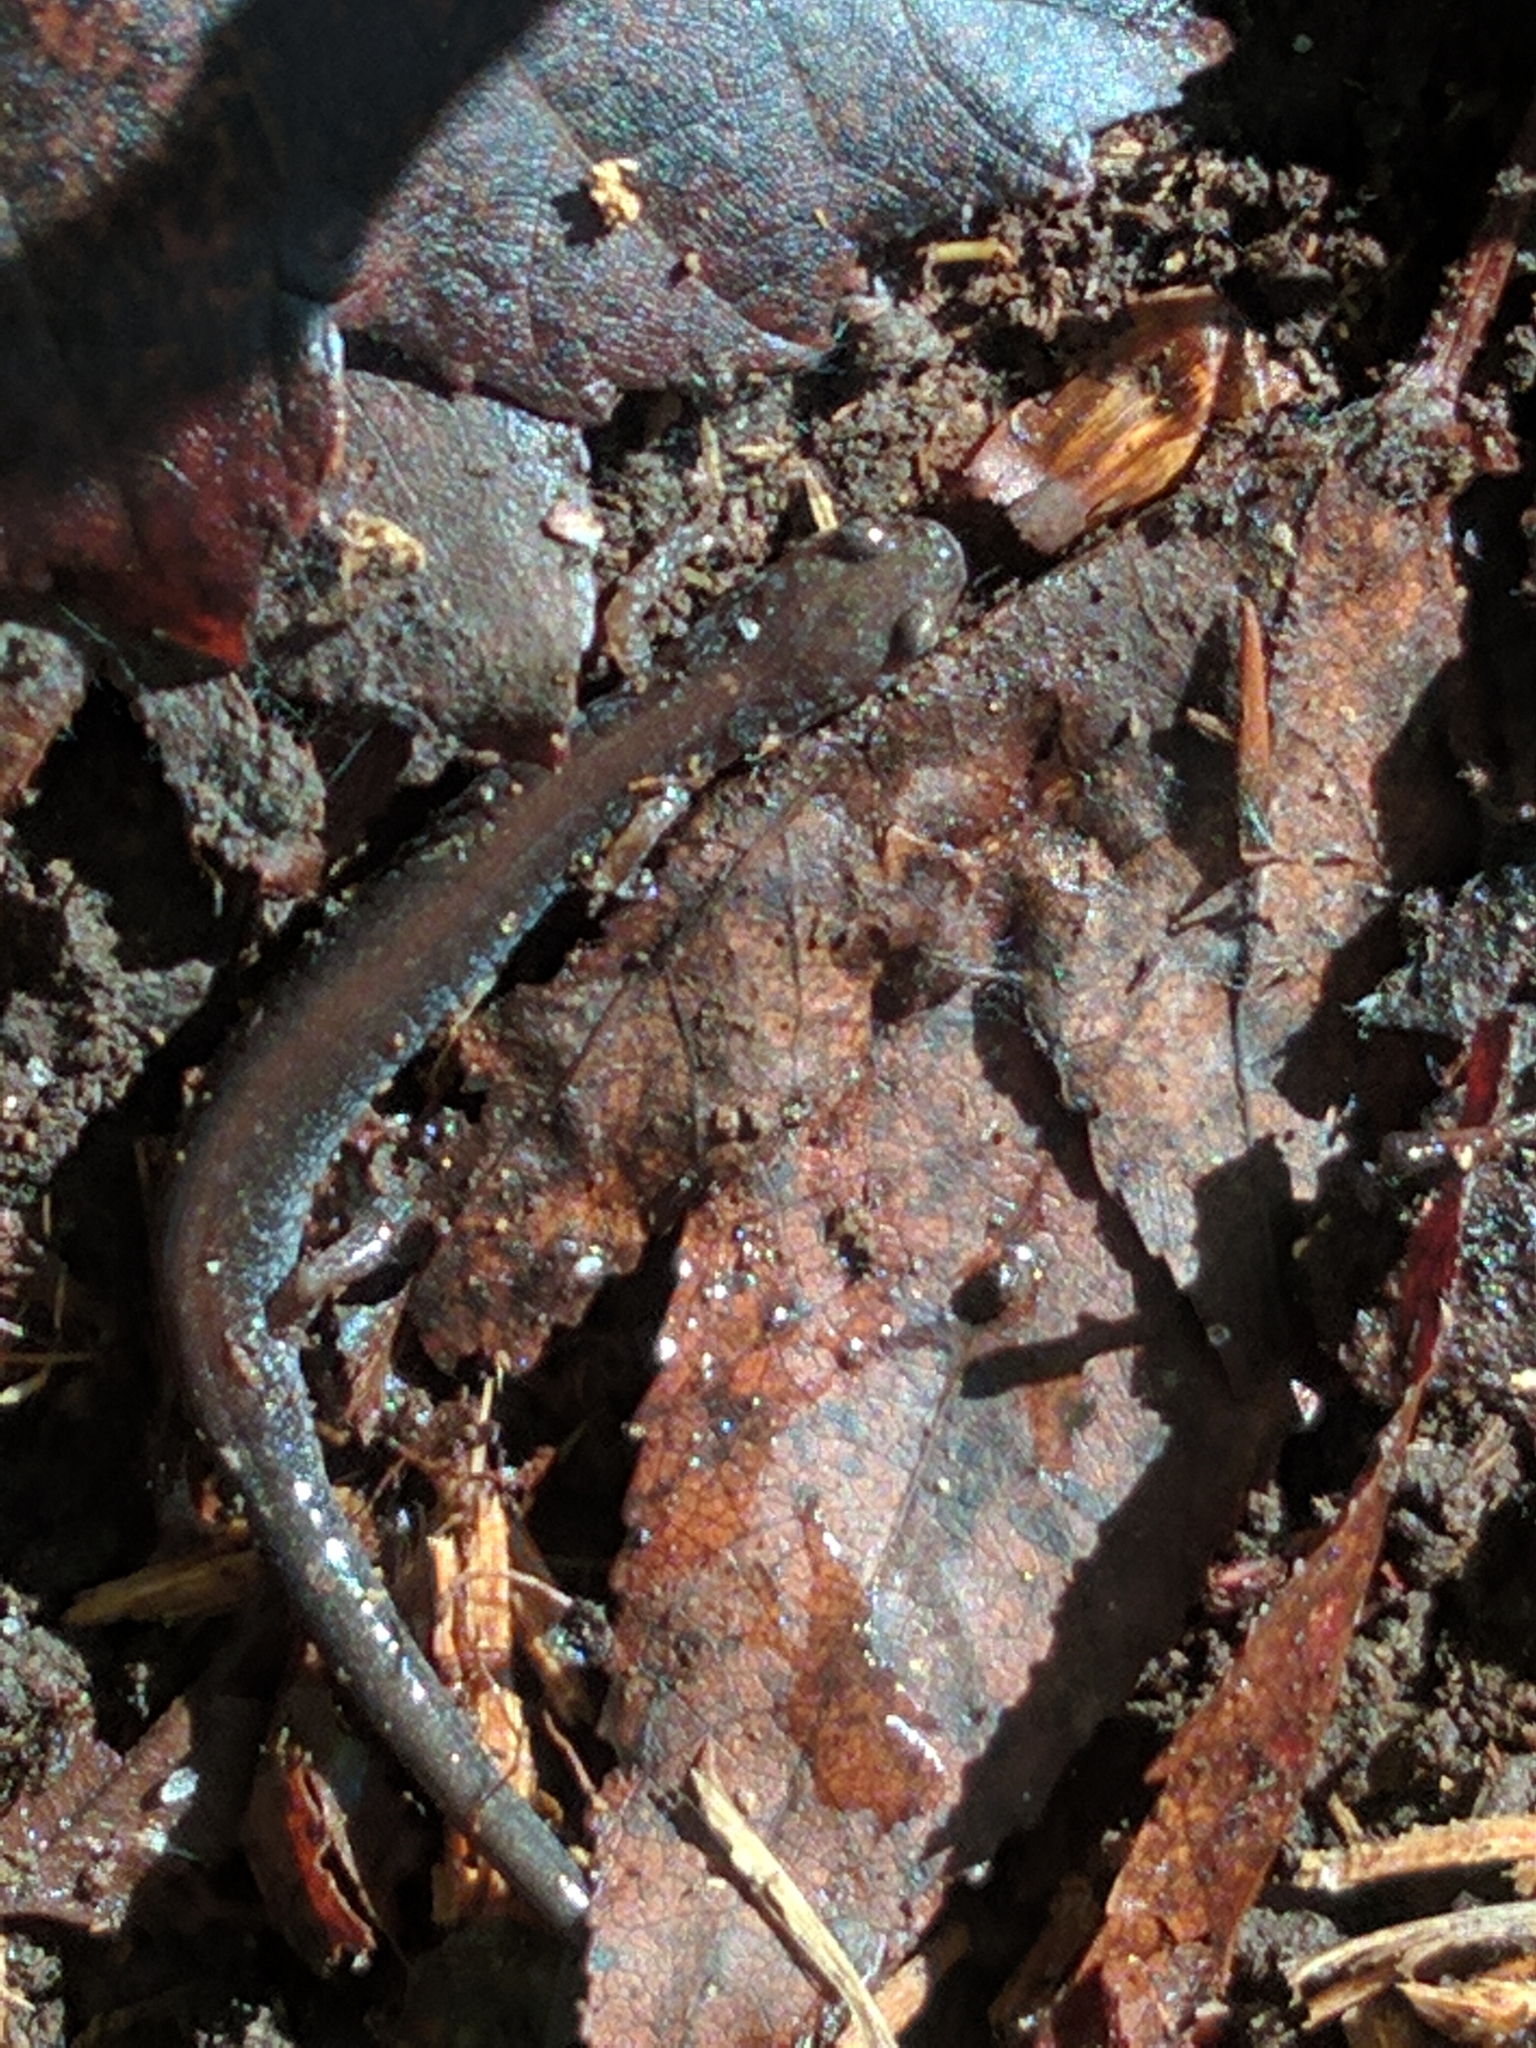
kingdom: Animalia
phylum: Chordata
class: Amphibia
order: Caudata
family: Plethodontidae
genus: Plethodon
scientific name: Plethodon cinereus
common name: Redback salamander
